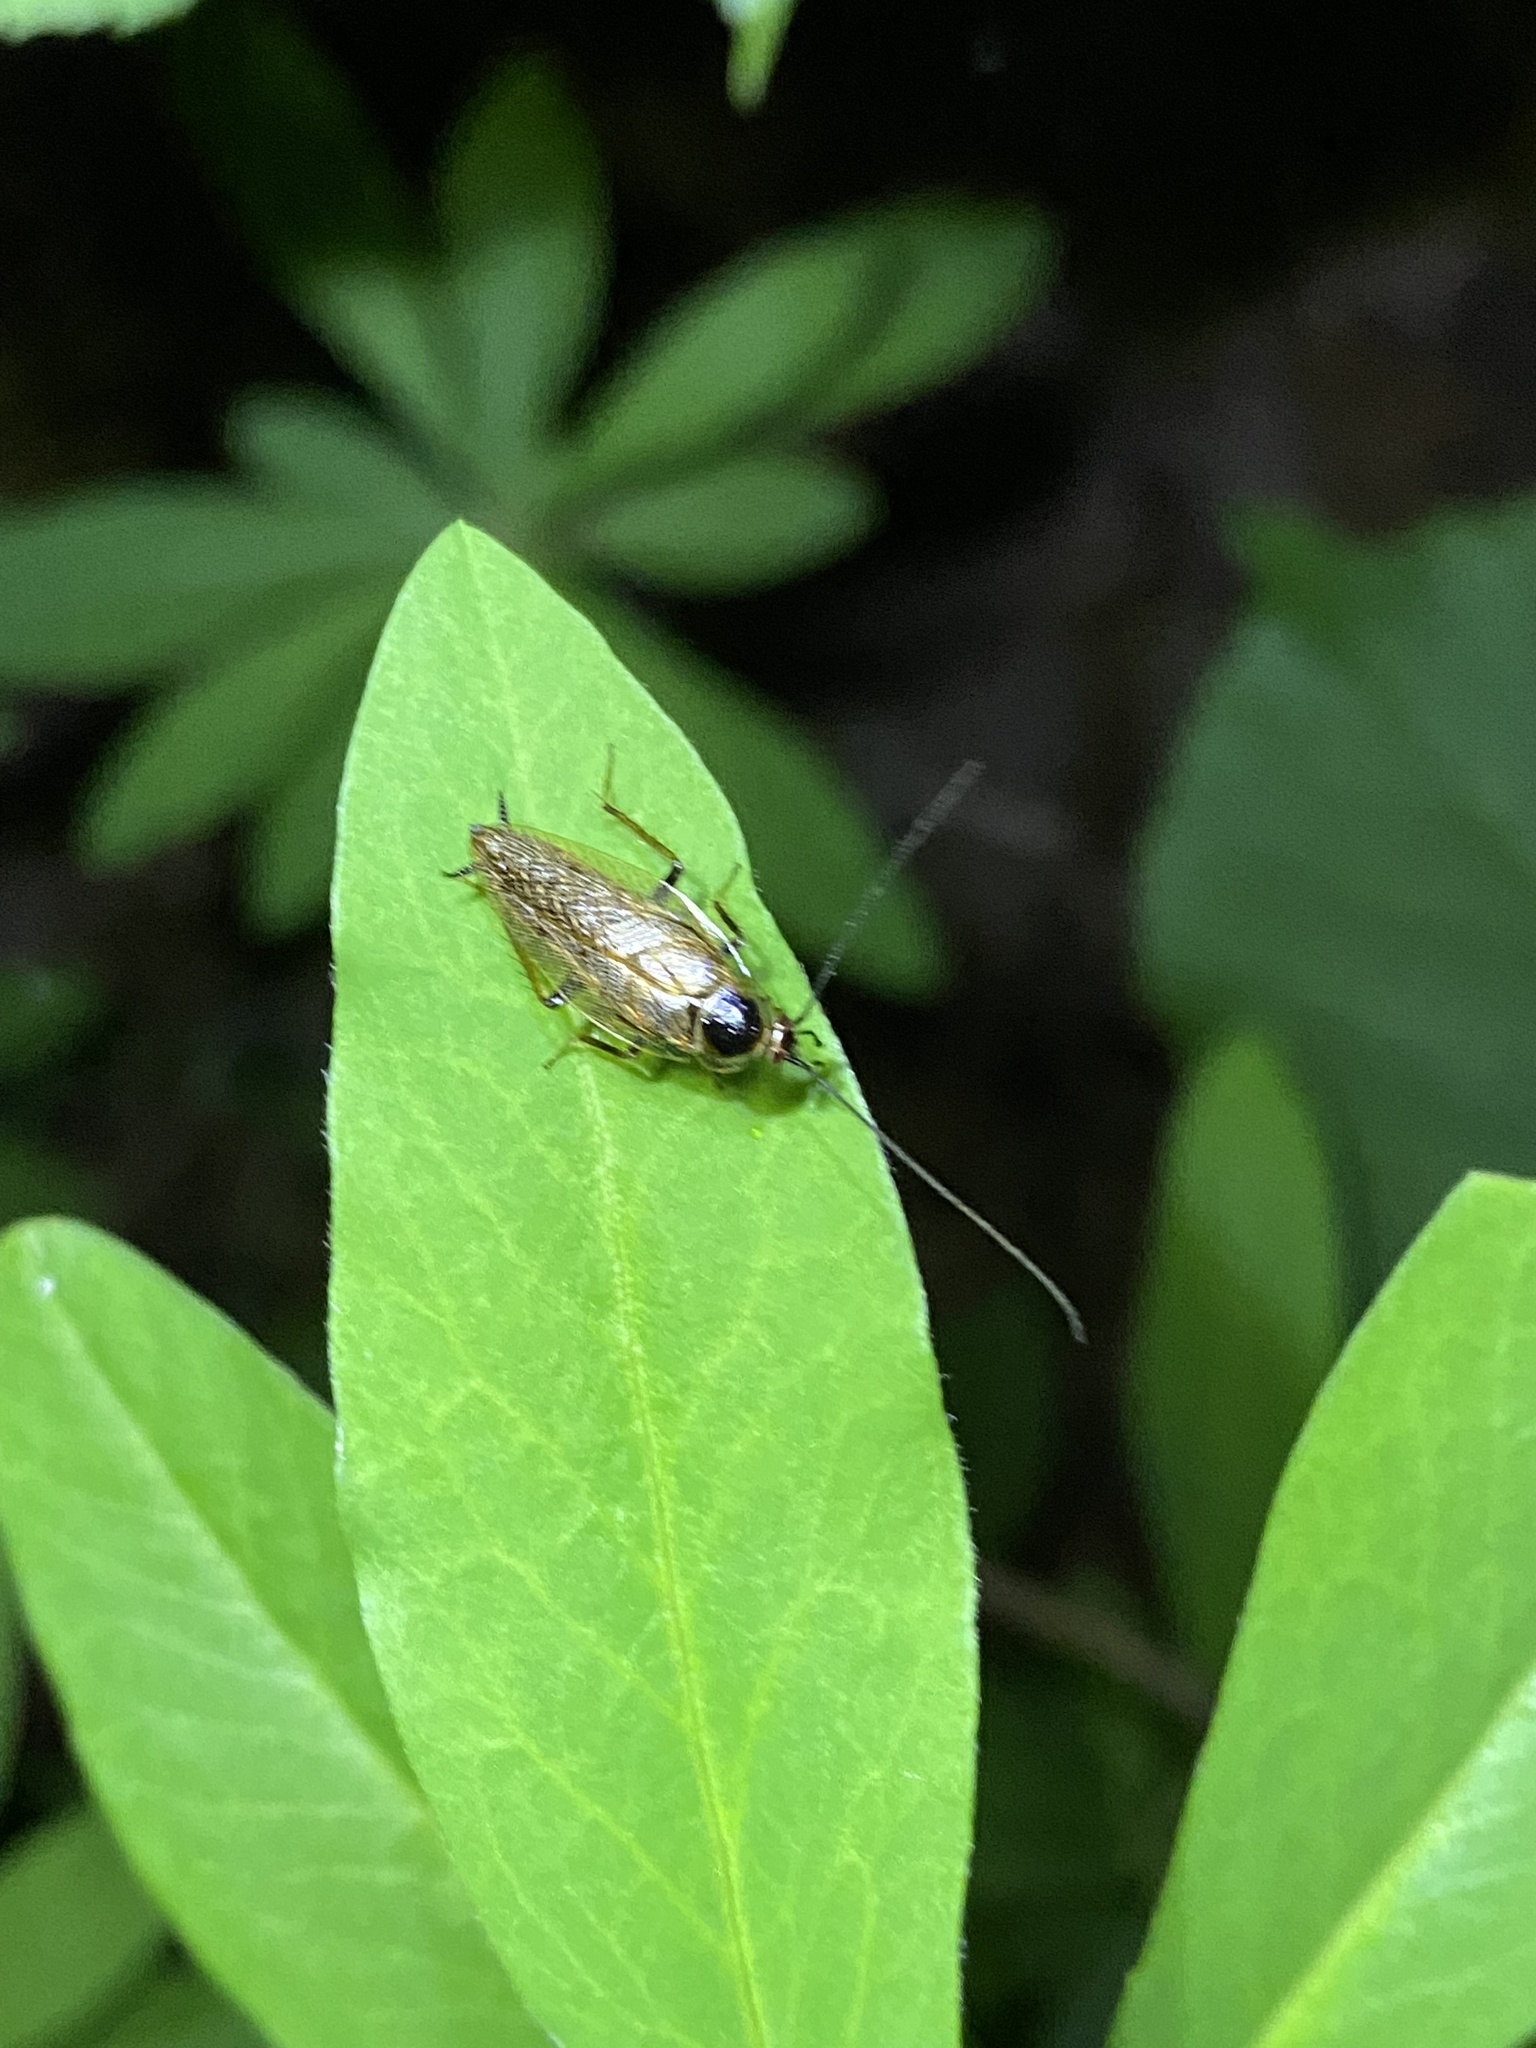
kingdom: Animalia
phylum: Arthropoda
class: Insecta
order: Blattodea
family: Ectobiidae
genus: Ectobius
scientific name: Ectobius lapponicus
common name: Dusky cockroach
